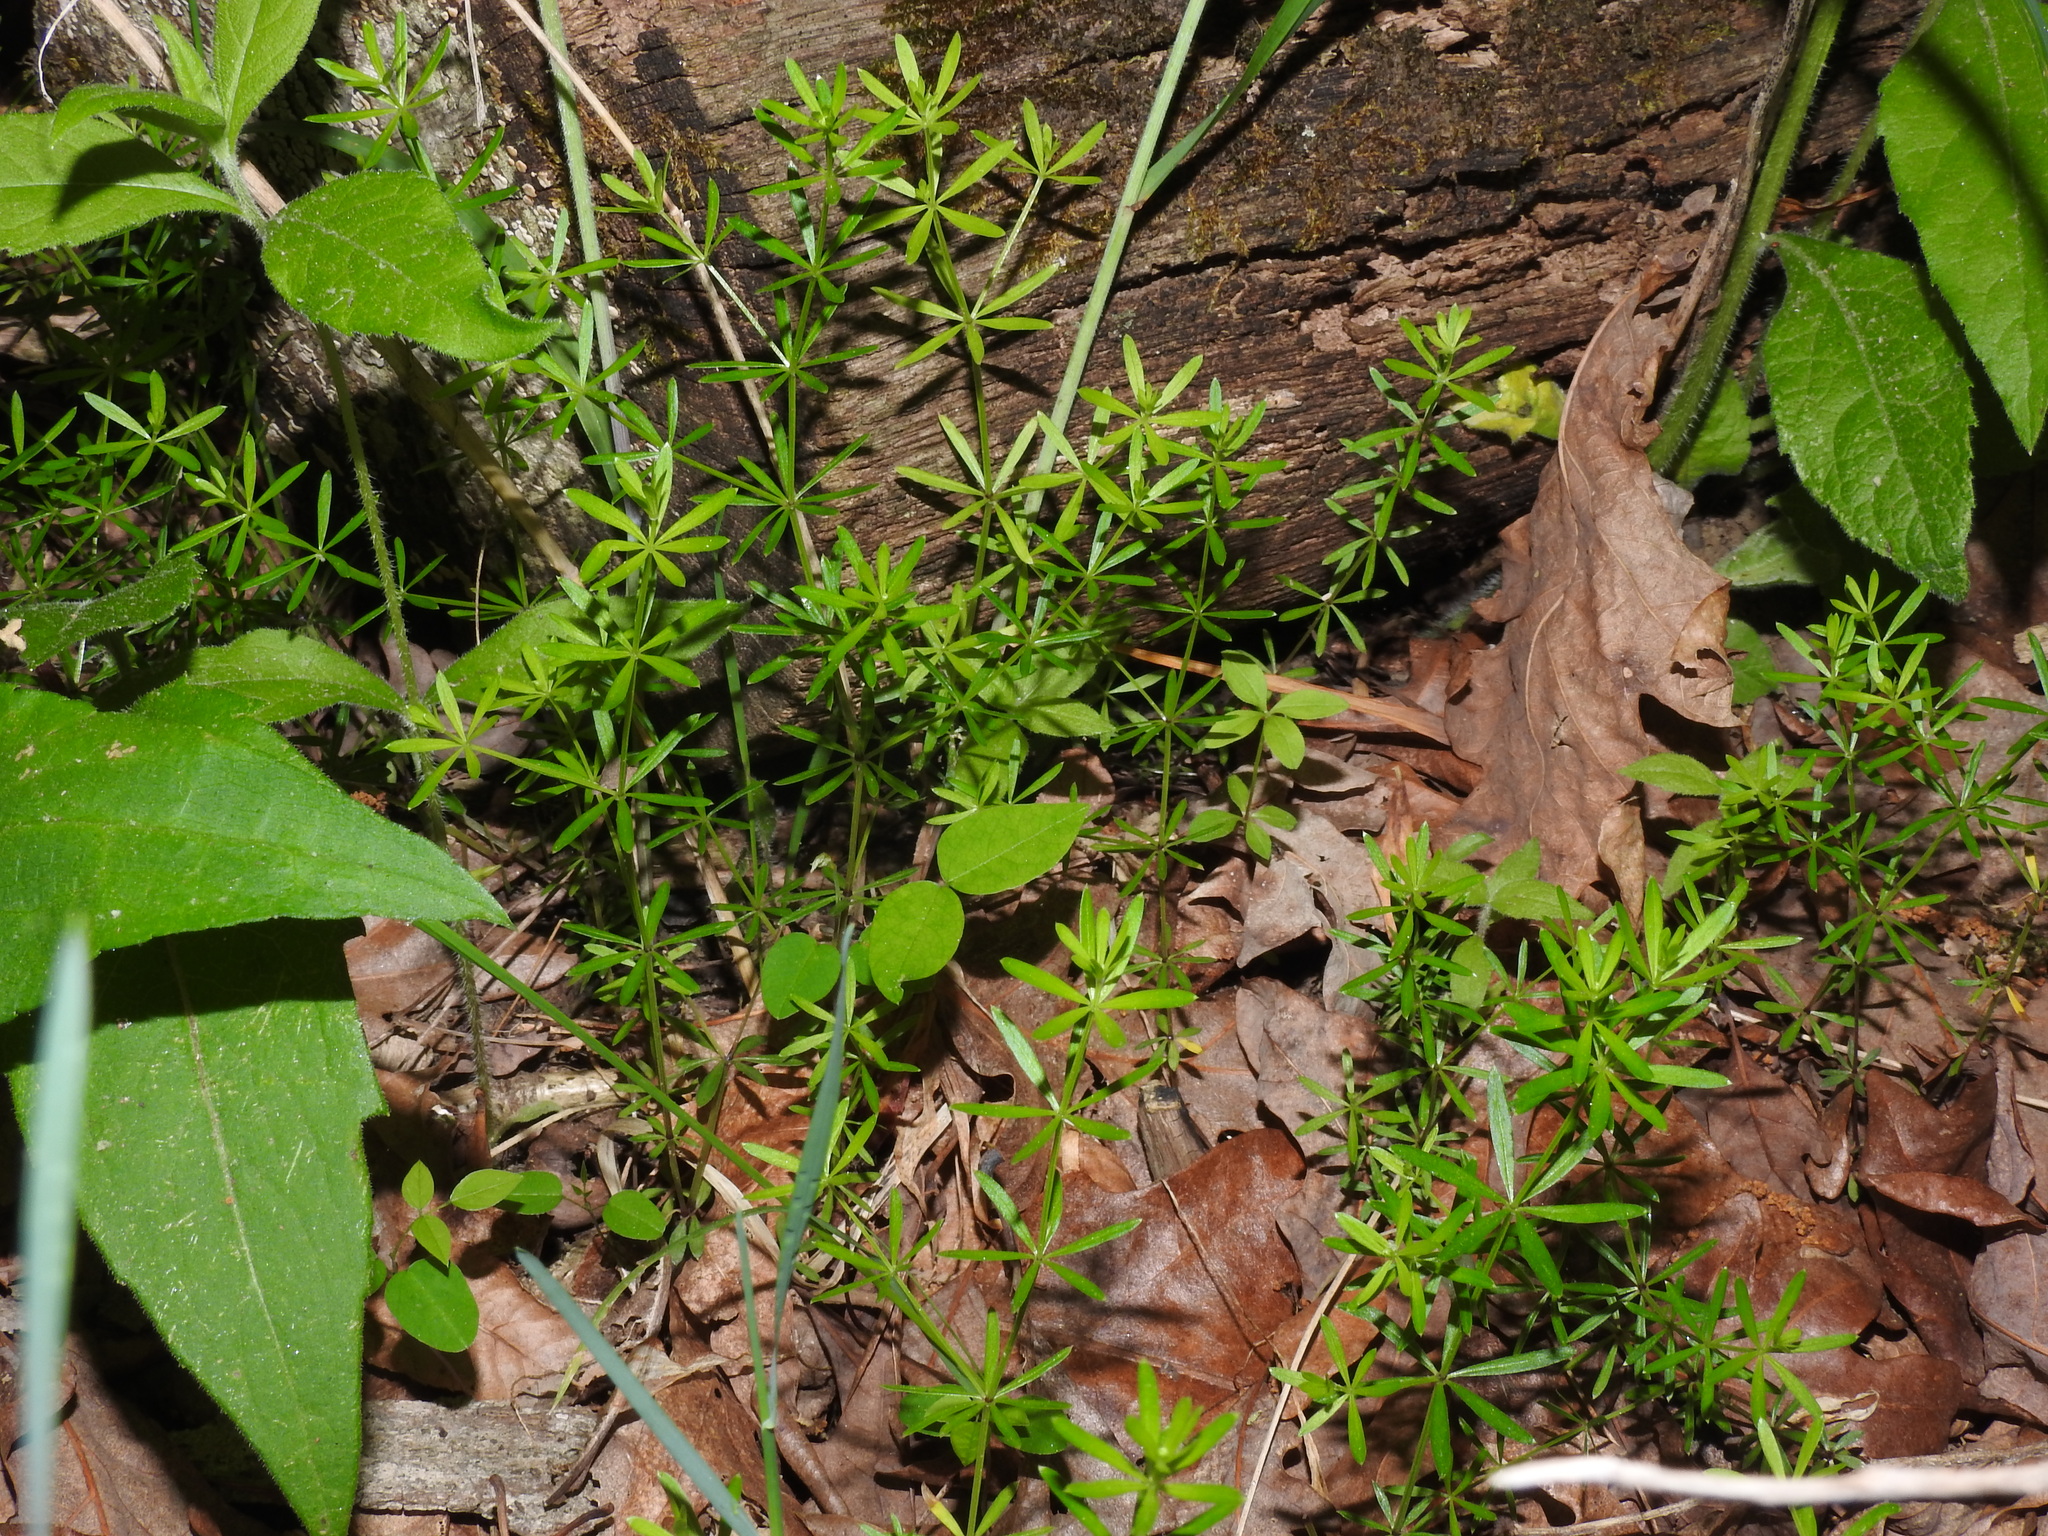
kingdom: Plantae
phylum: Tracheophyta
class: Magnoliopsida
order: Gentianales
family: Rubiaceae
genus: Galium
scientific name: Galium concinnum
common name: Shining bedstraw
